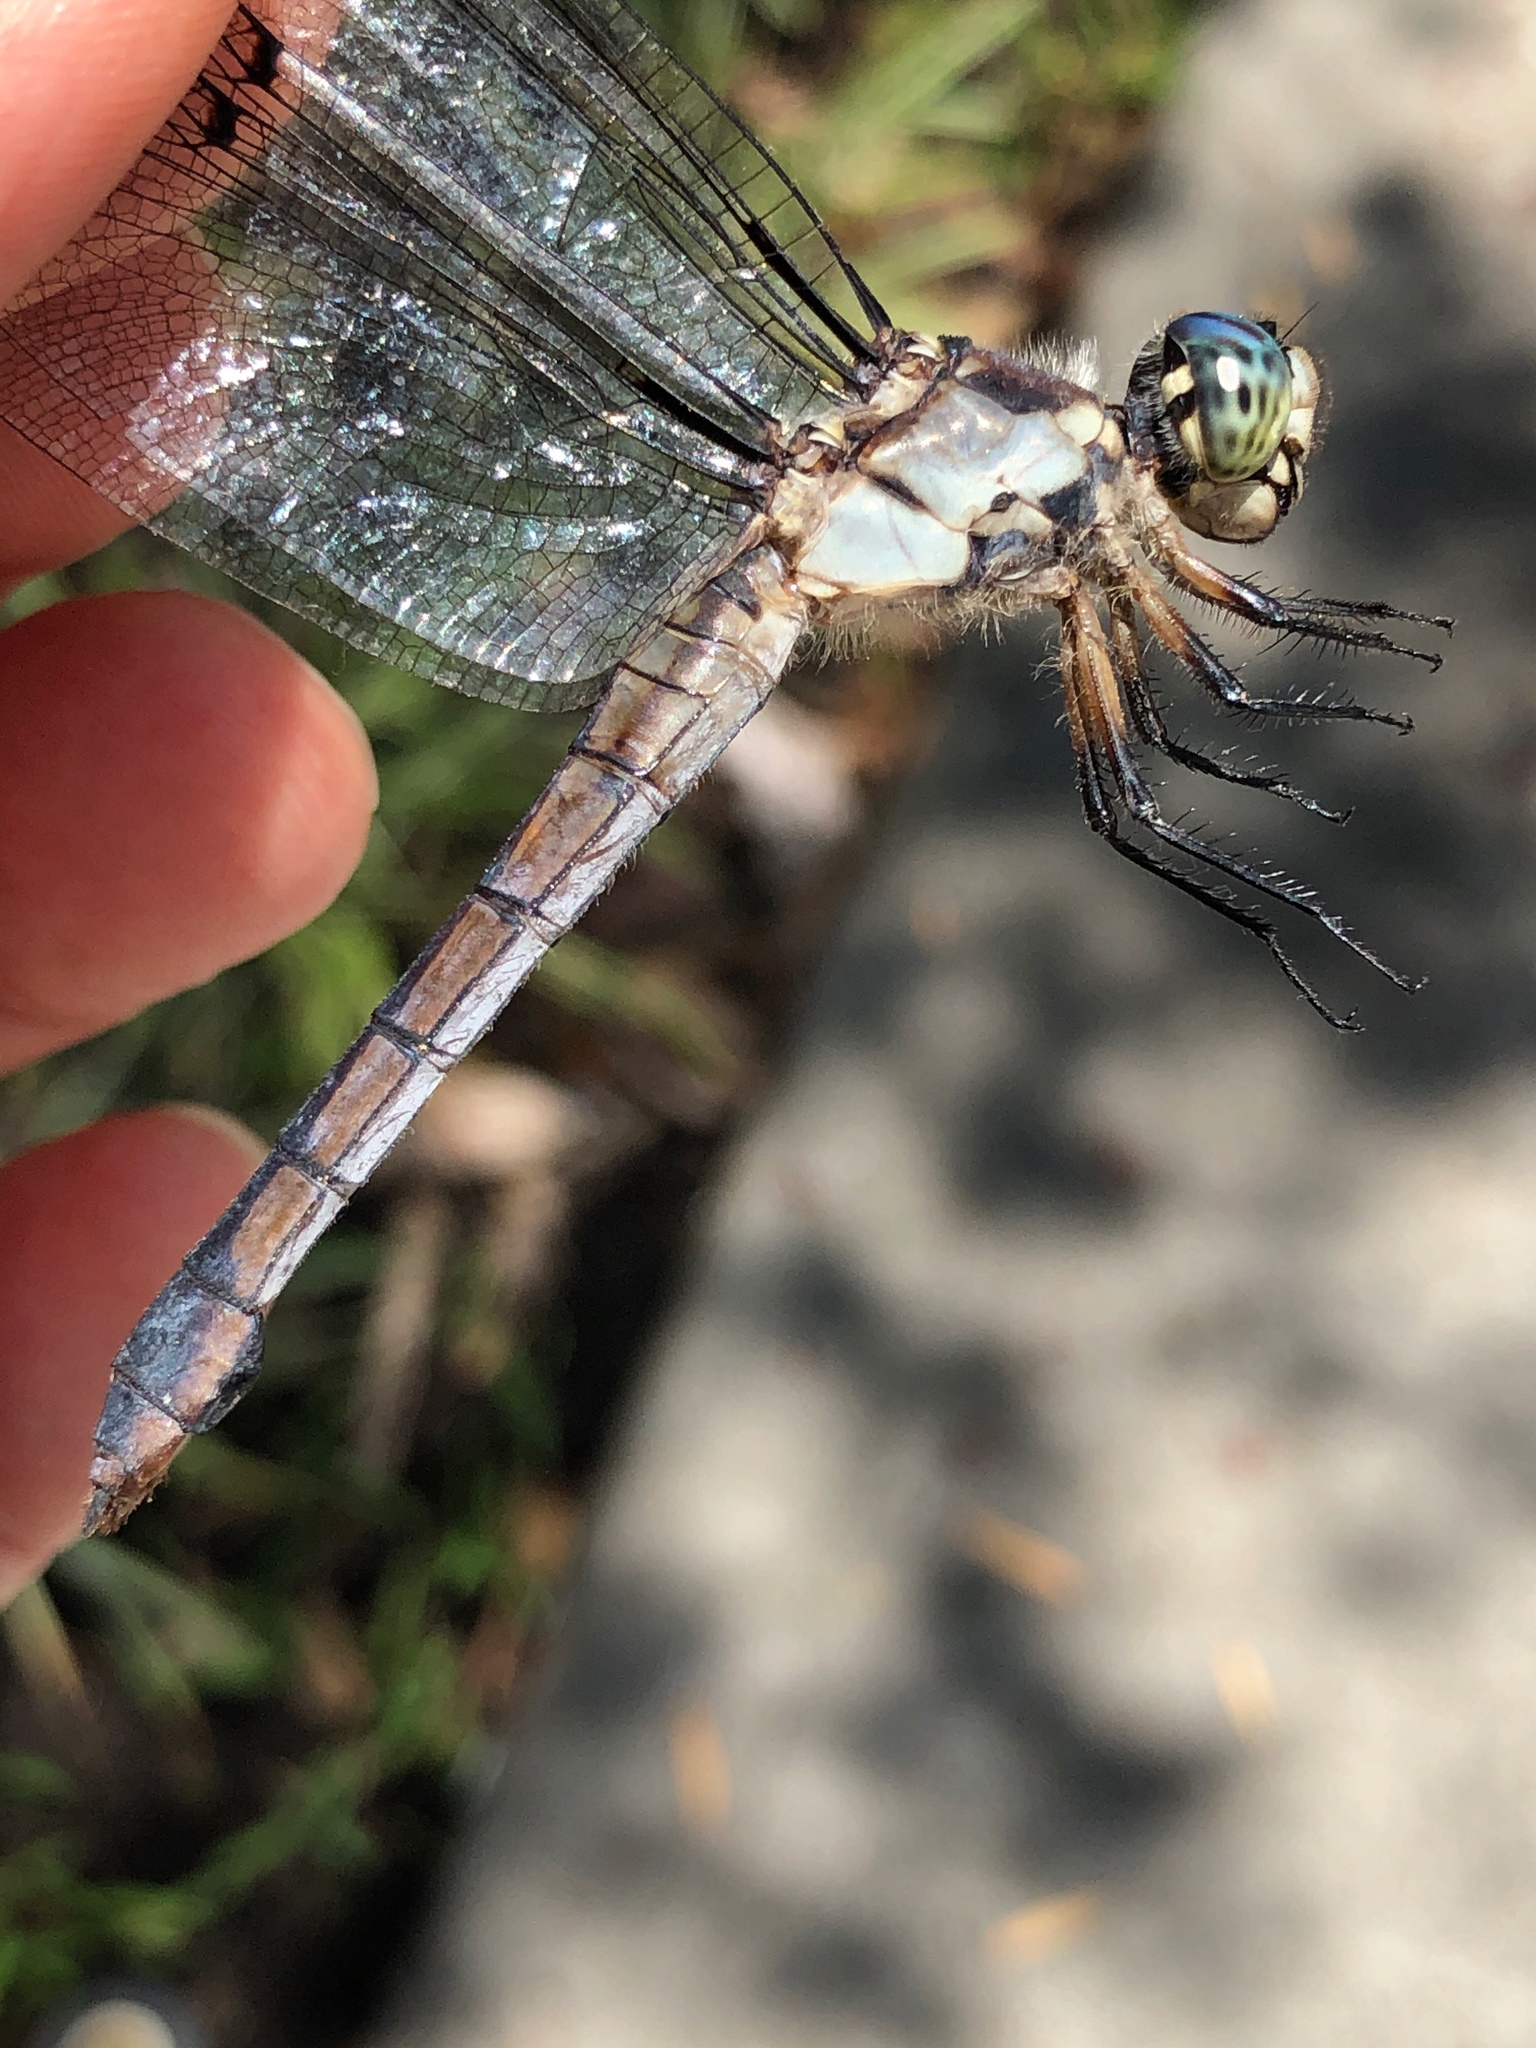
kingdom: Animalia
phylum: Arthropoda
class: Insecta
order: Odonata
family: Libellulidae
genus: Libellula
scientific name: Libellula vibrans
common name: Great blue skimmer
